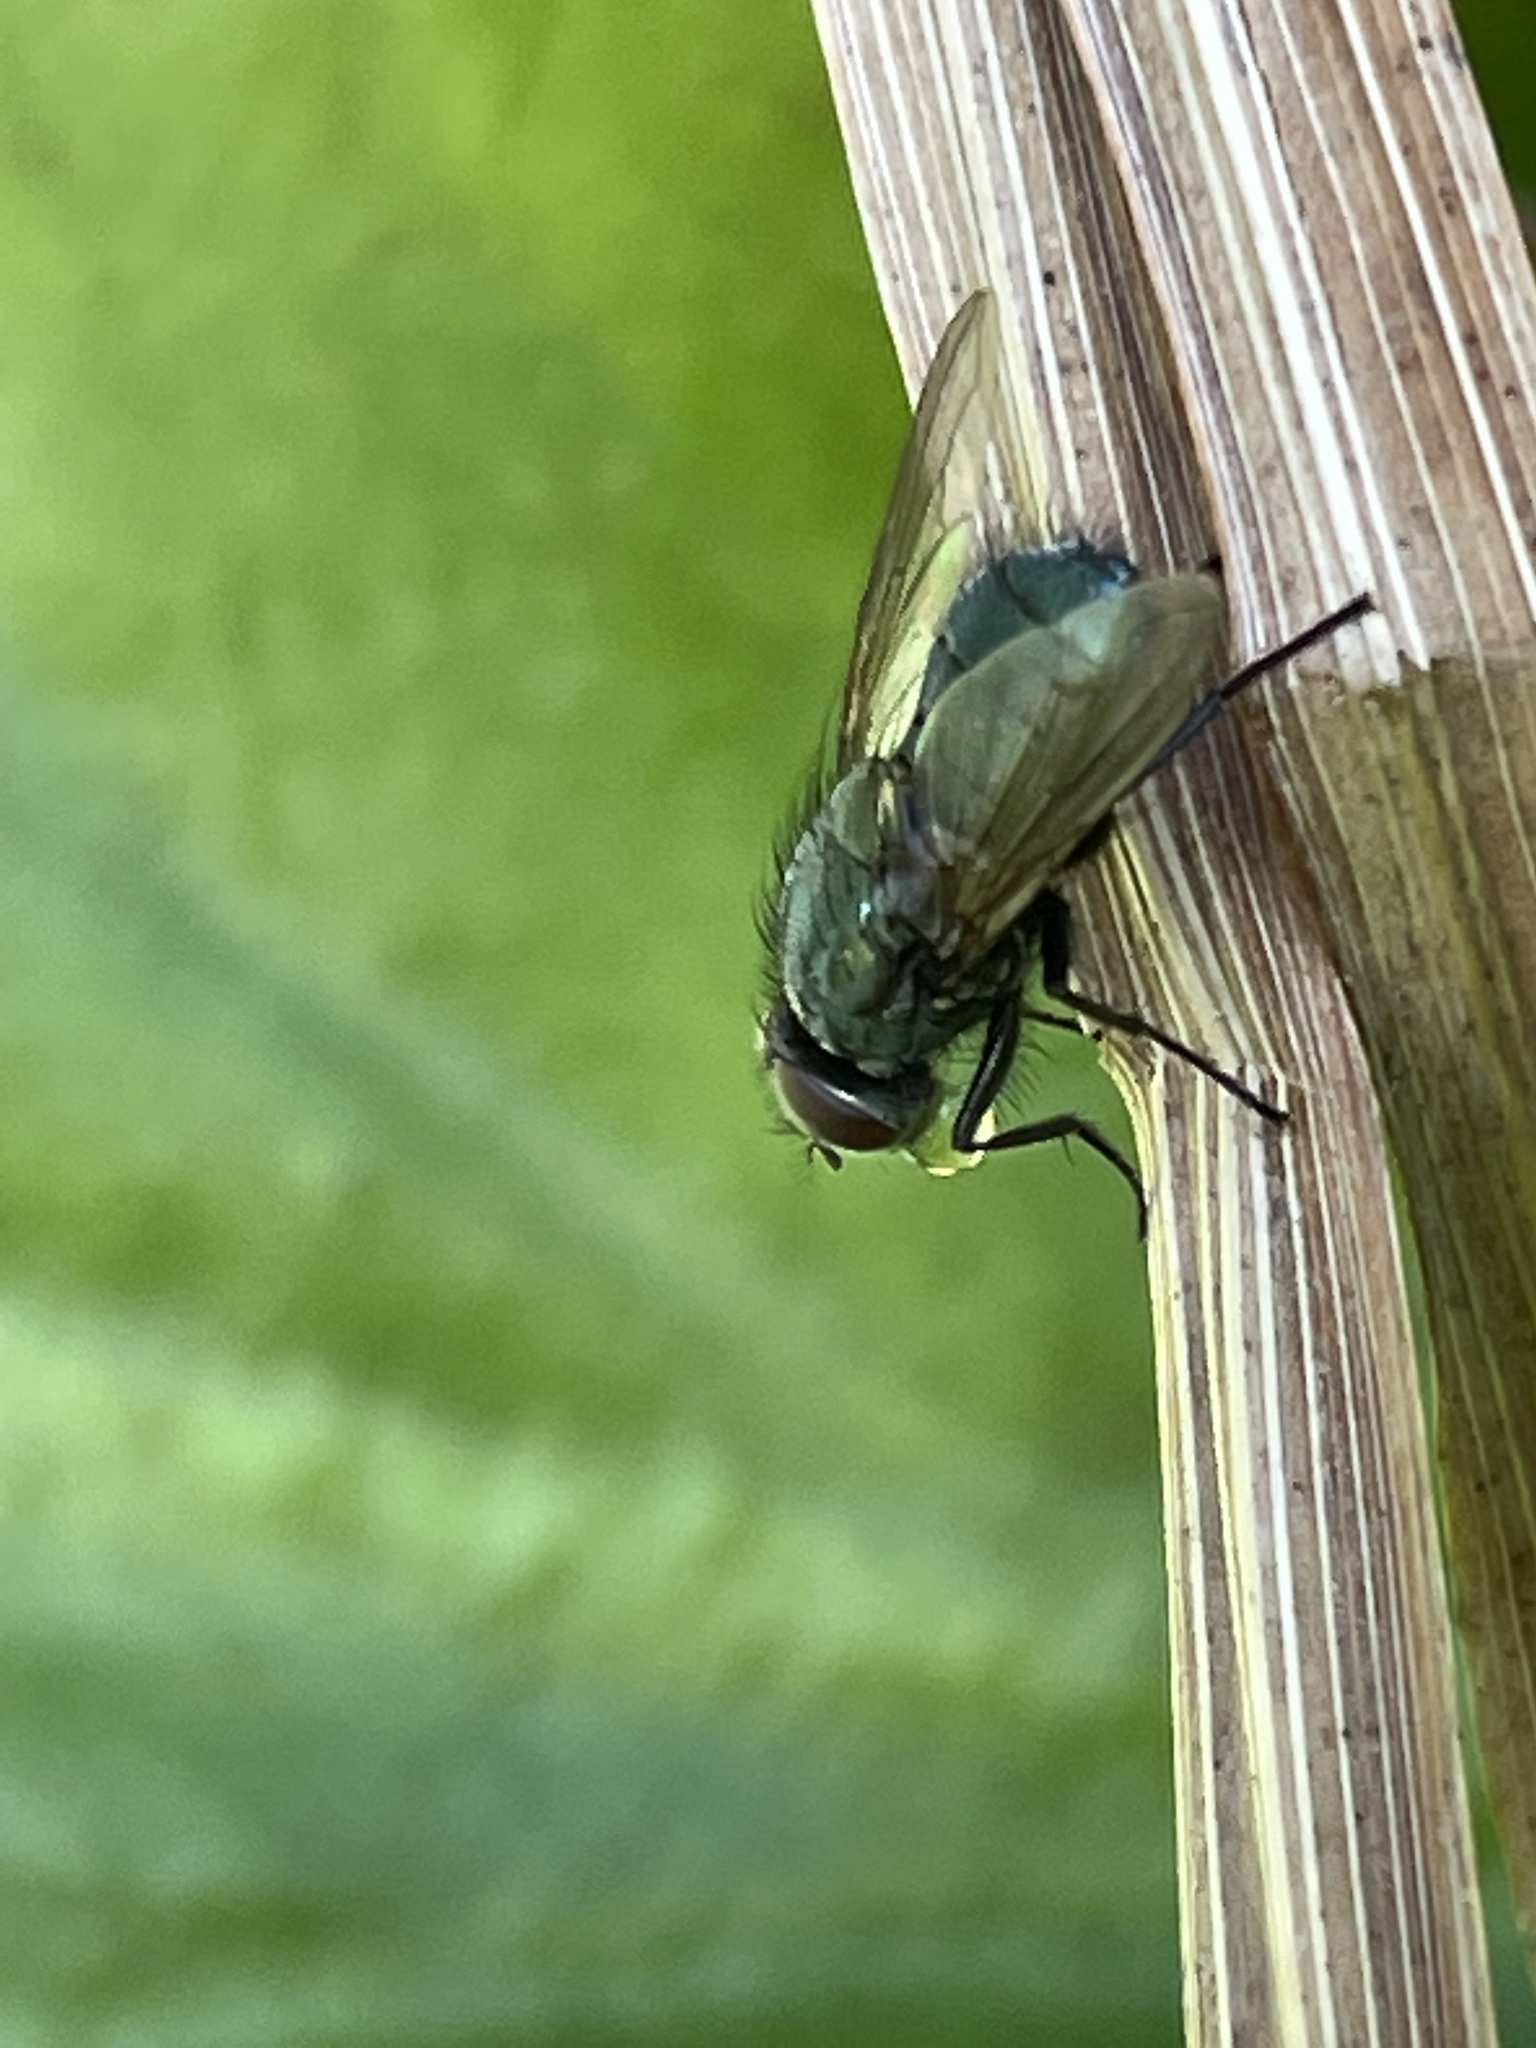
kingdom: Animalia
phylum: Arthropoda
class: Insecta
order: Diptera
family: Muscidae
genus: Dasyphora
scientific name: Dasyphora cyanella
